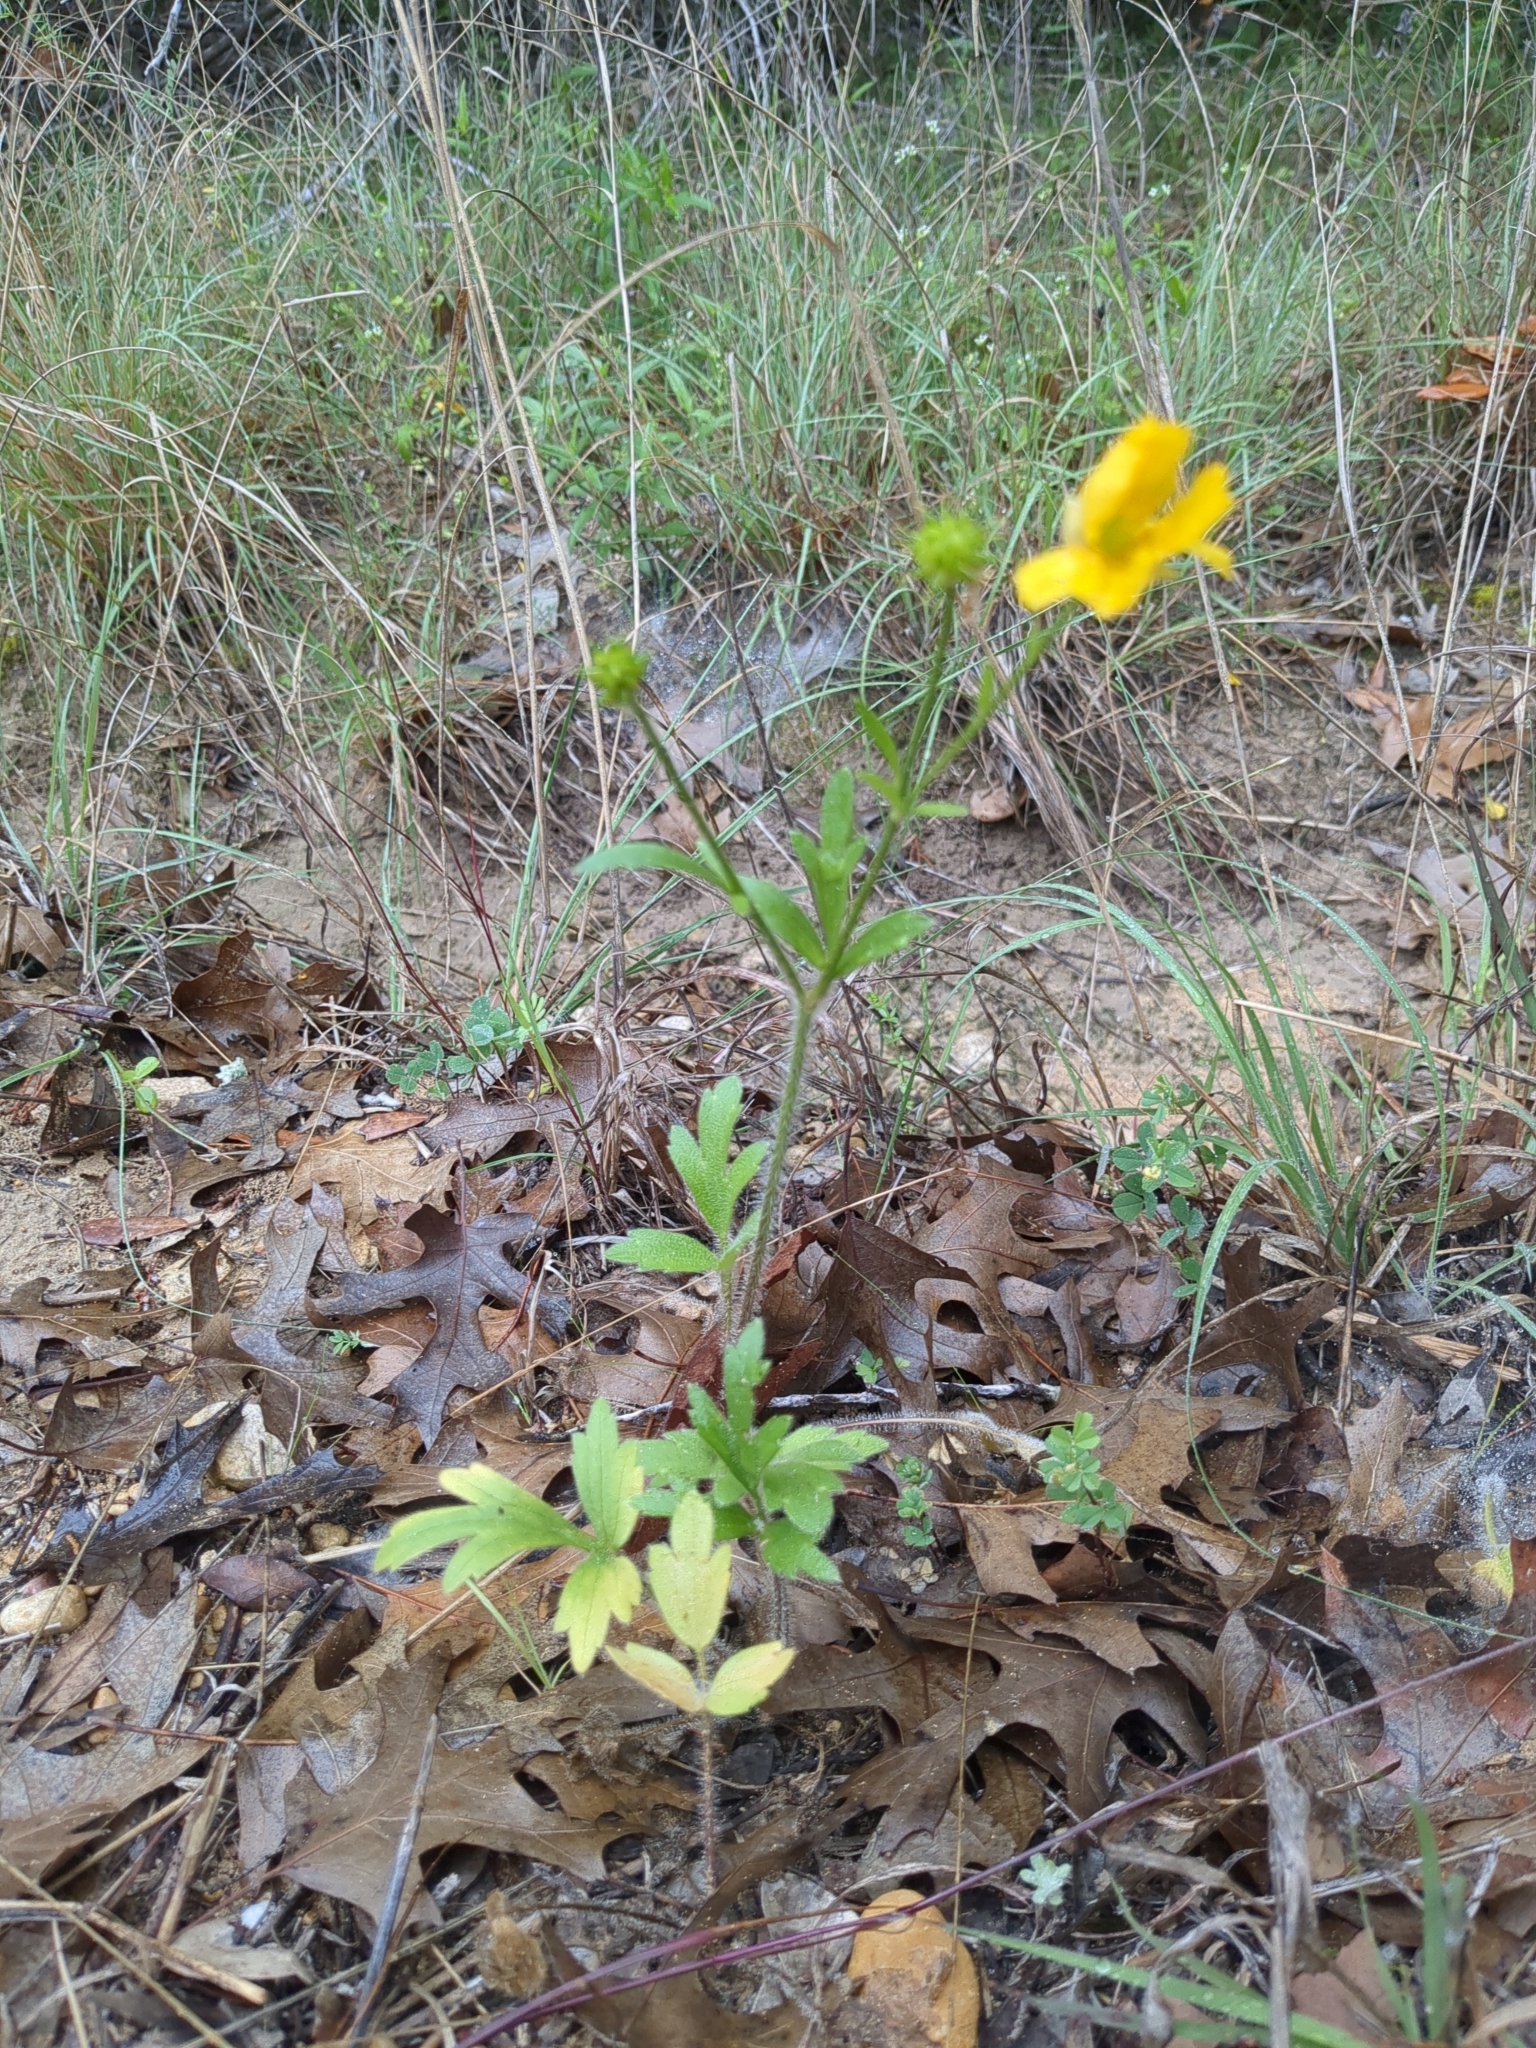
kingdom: Plantae
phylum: Tracheophyta
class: Magnoliopsida
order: Ranunculales
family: Ranunculaceae
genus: Ranunculus
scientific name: Ranunculus muricatus
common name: Rough-fruited buttercup
